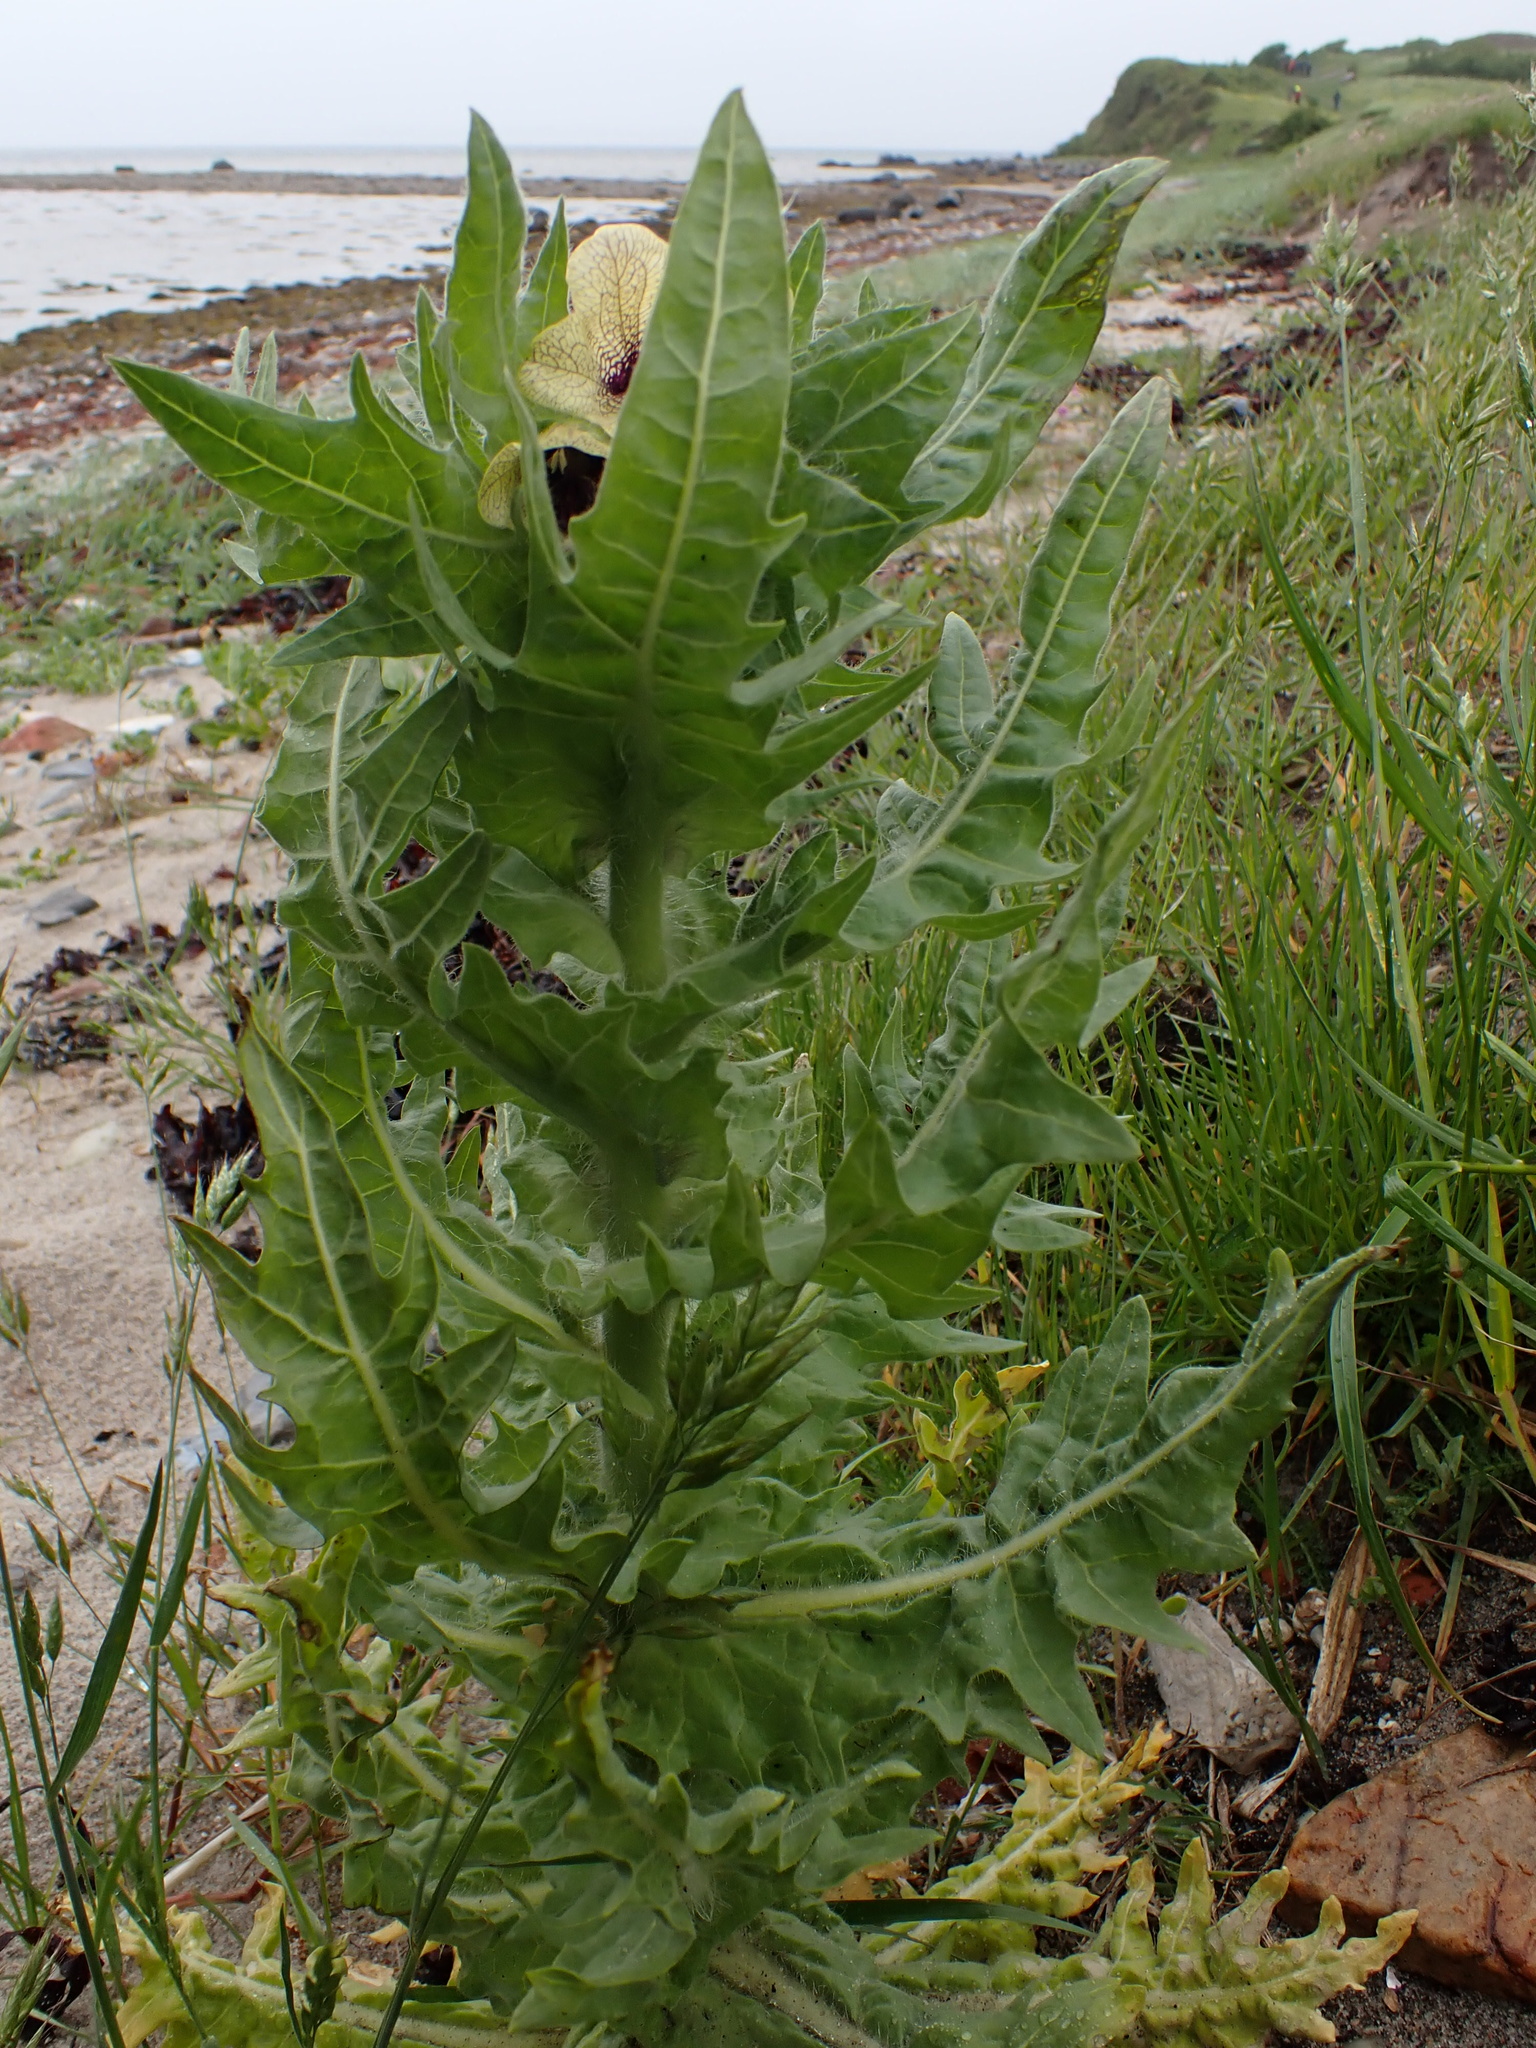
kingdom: Plantae
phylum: Tracheophyta
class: Magnoliopsida
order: Solanales
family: Solanaceae
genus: Hyoscyamus
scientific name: Hyoscyamus niger
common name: Henbane
